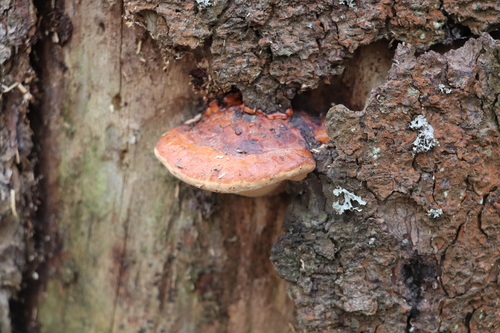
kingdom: Fungi
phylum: Basidiomycota
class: Agaricomycetes
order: Polyporales
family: Fomitopsidaceae
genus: Fomitopsis
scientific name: Fomitopsis pinicola
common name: Red-belted bracket
